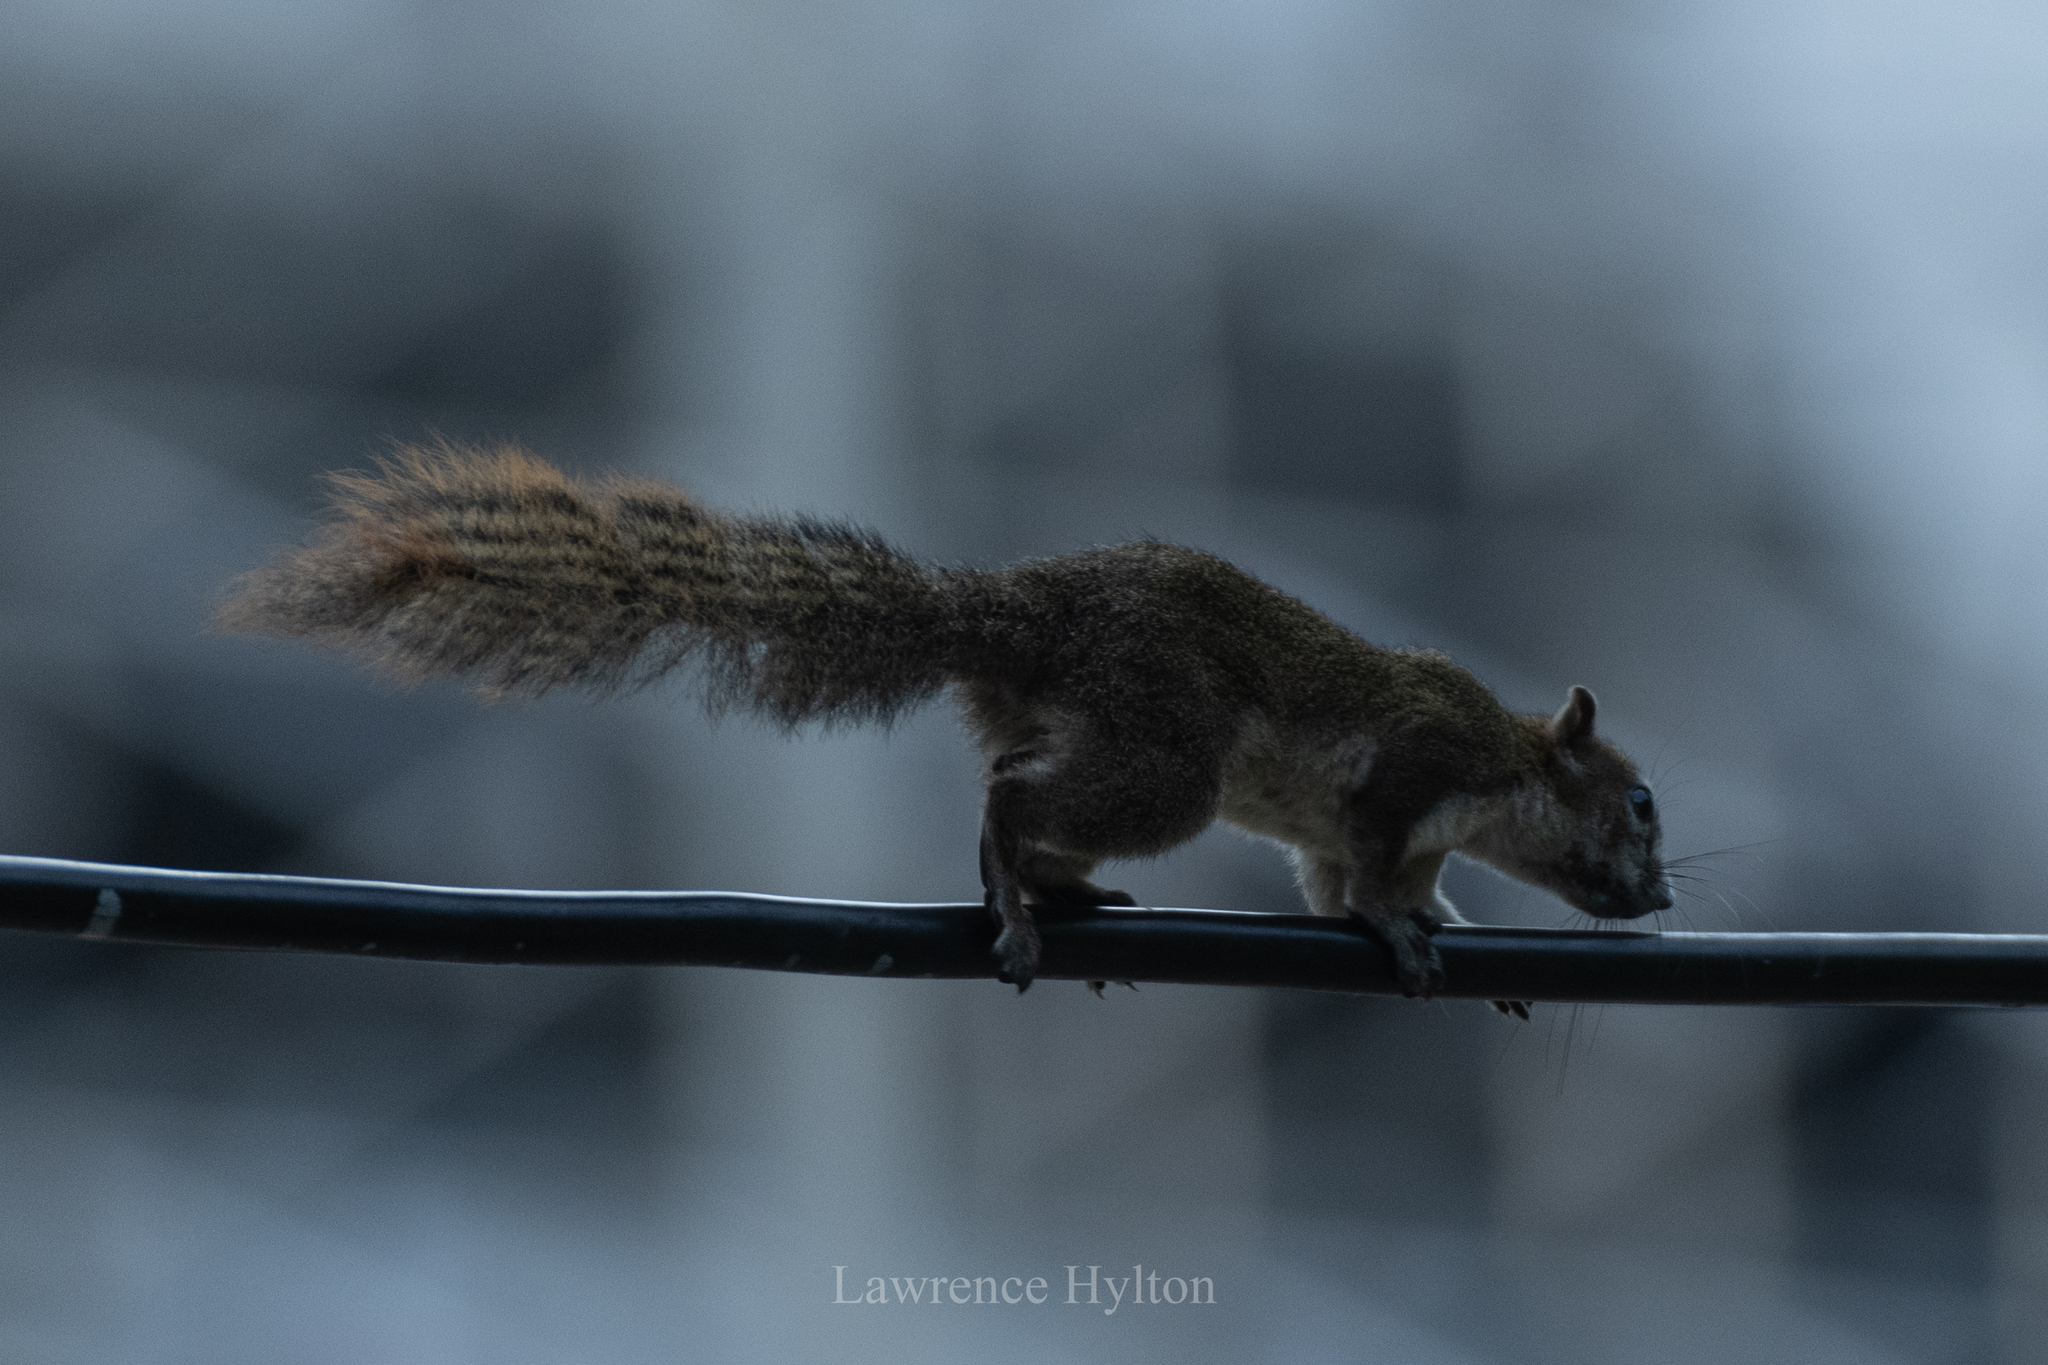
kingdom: Animalia
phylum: Chordata
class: Mammalia
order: Rodentia
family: Sciuridae
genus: Callosciurus
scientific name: Callosciurus finlaysonii
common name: Finlayson's squirrel
